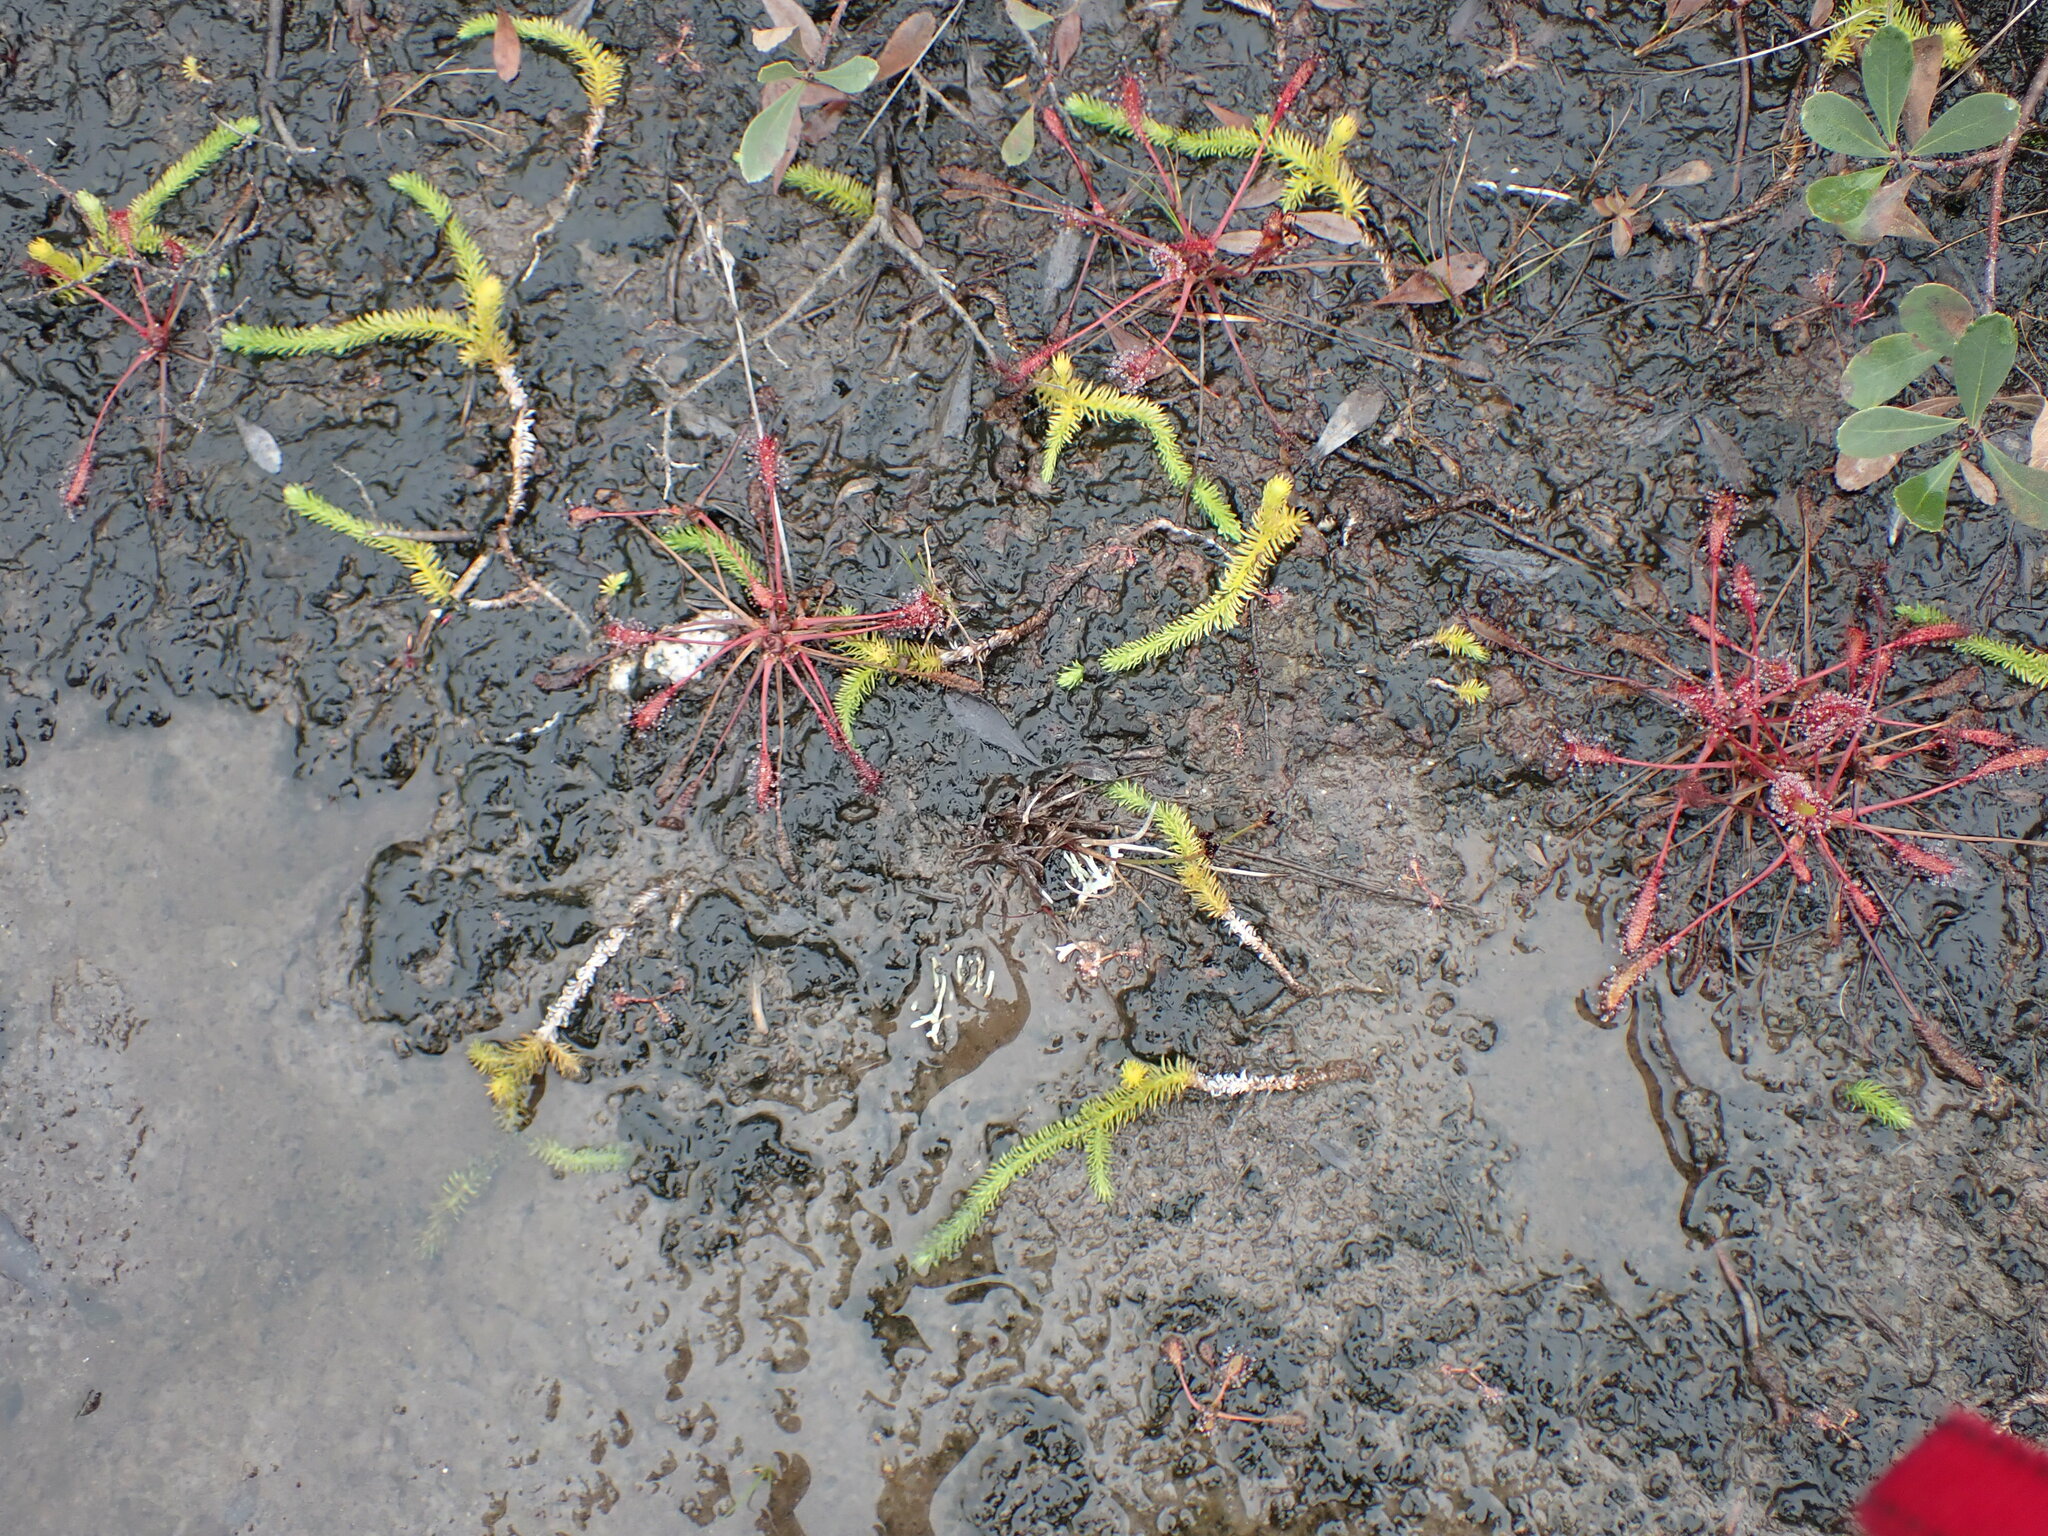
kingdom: Plantae
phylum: Tracheophyta
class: Lycopodiopsida
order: Lycopodiales
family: Lycopodiaceae
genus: Lycopodiella
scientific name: Lycopodiella inundata
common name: Marsh clubmoss
